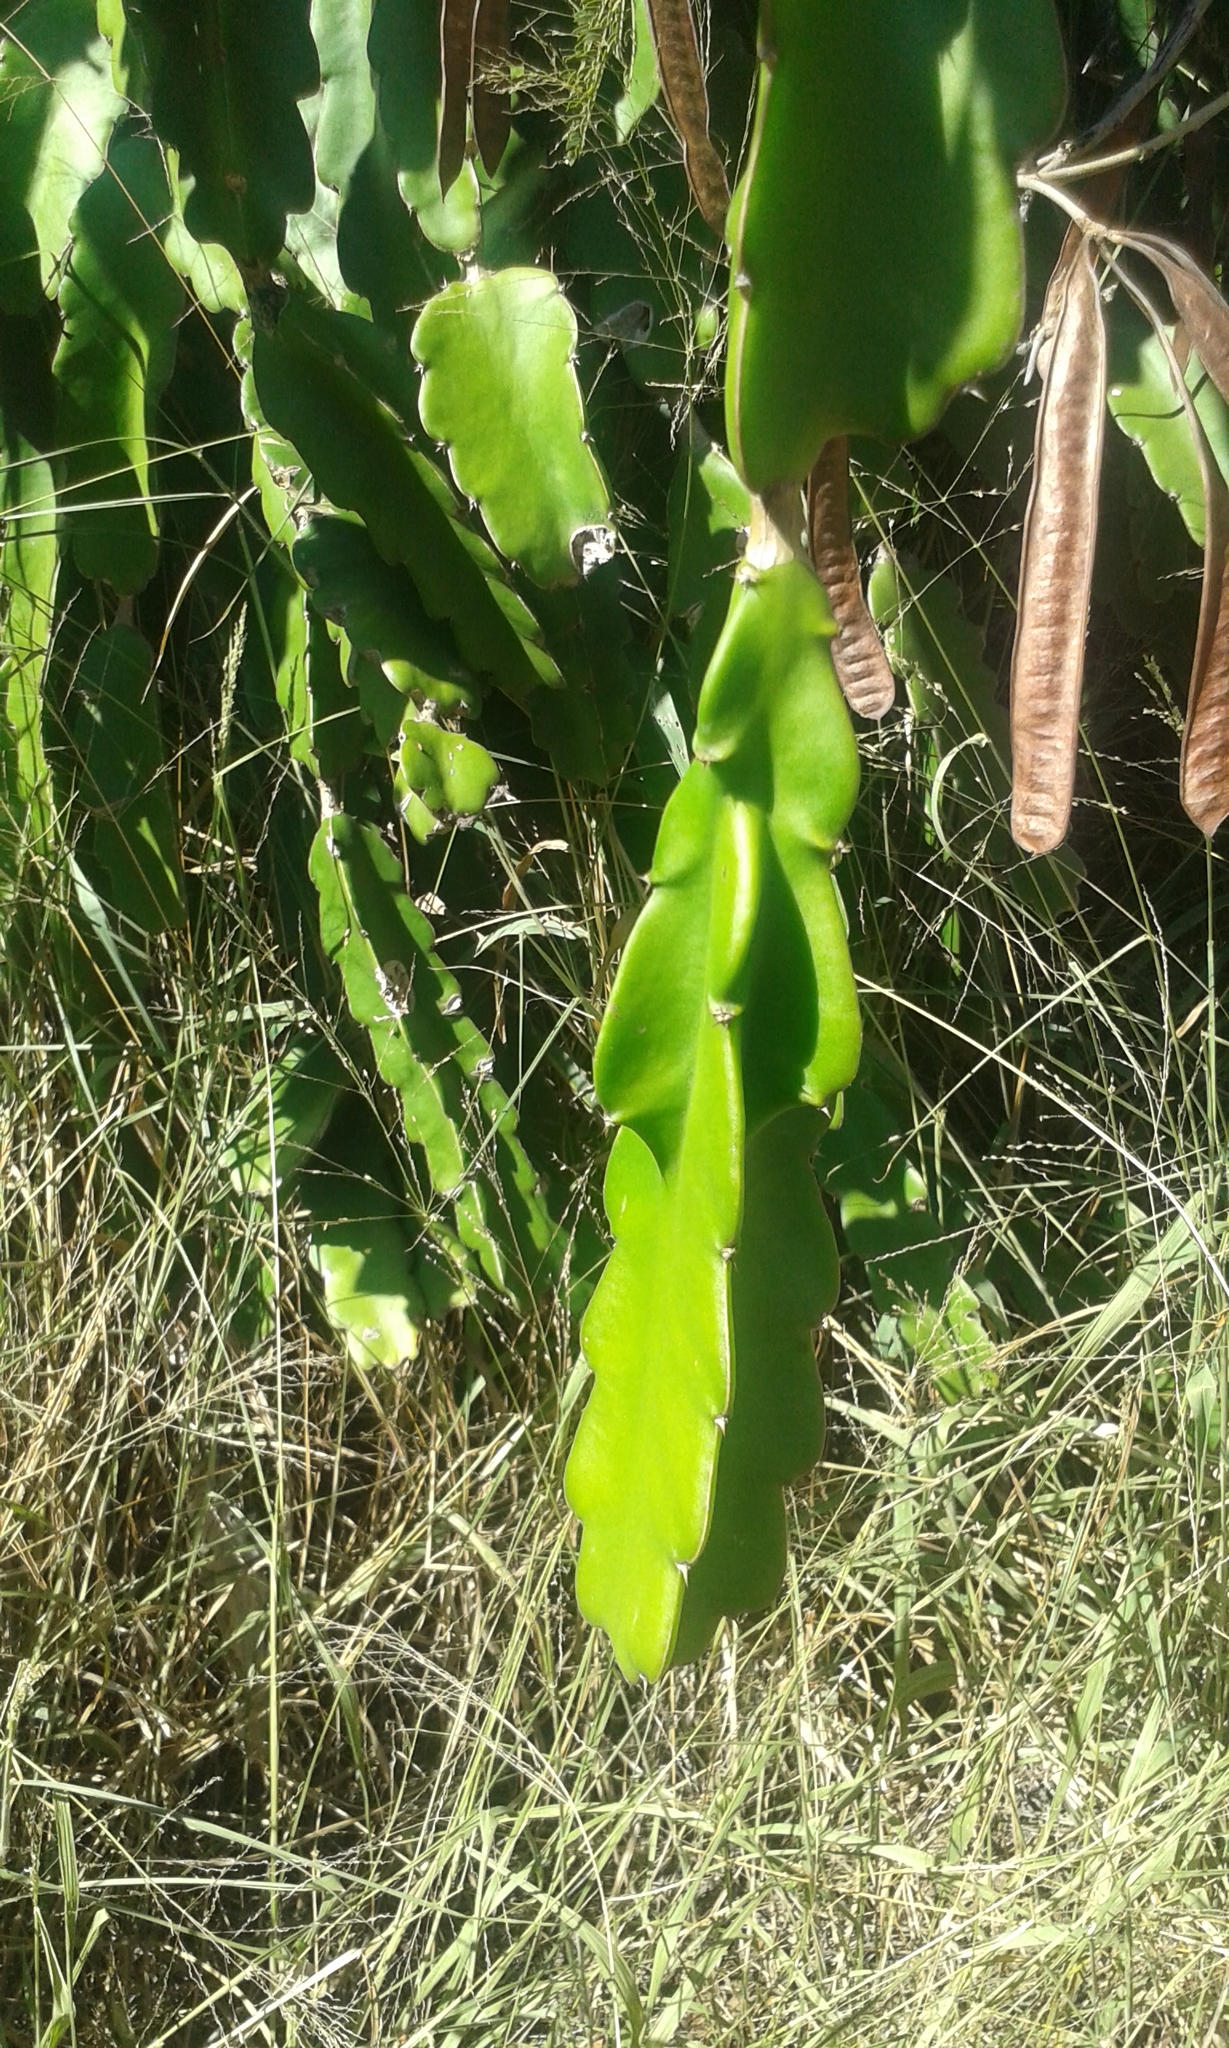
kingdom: Plantae
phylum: Tracheophyta
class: Magnoliopsida
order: Caryophyllales
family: Cactaceae
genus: Selenicereus
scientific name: Selenicereus undatus
